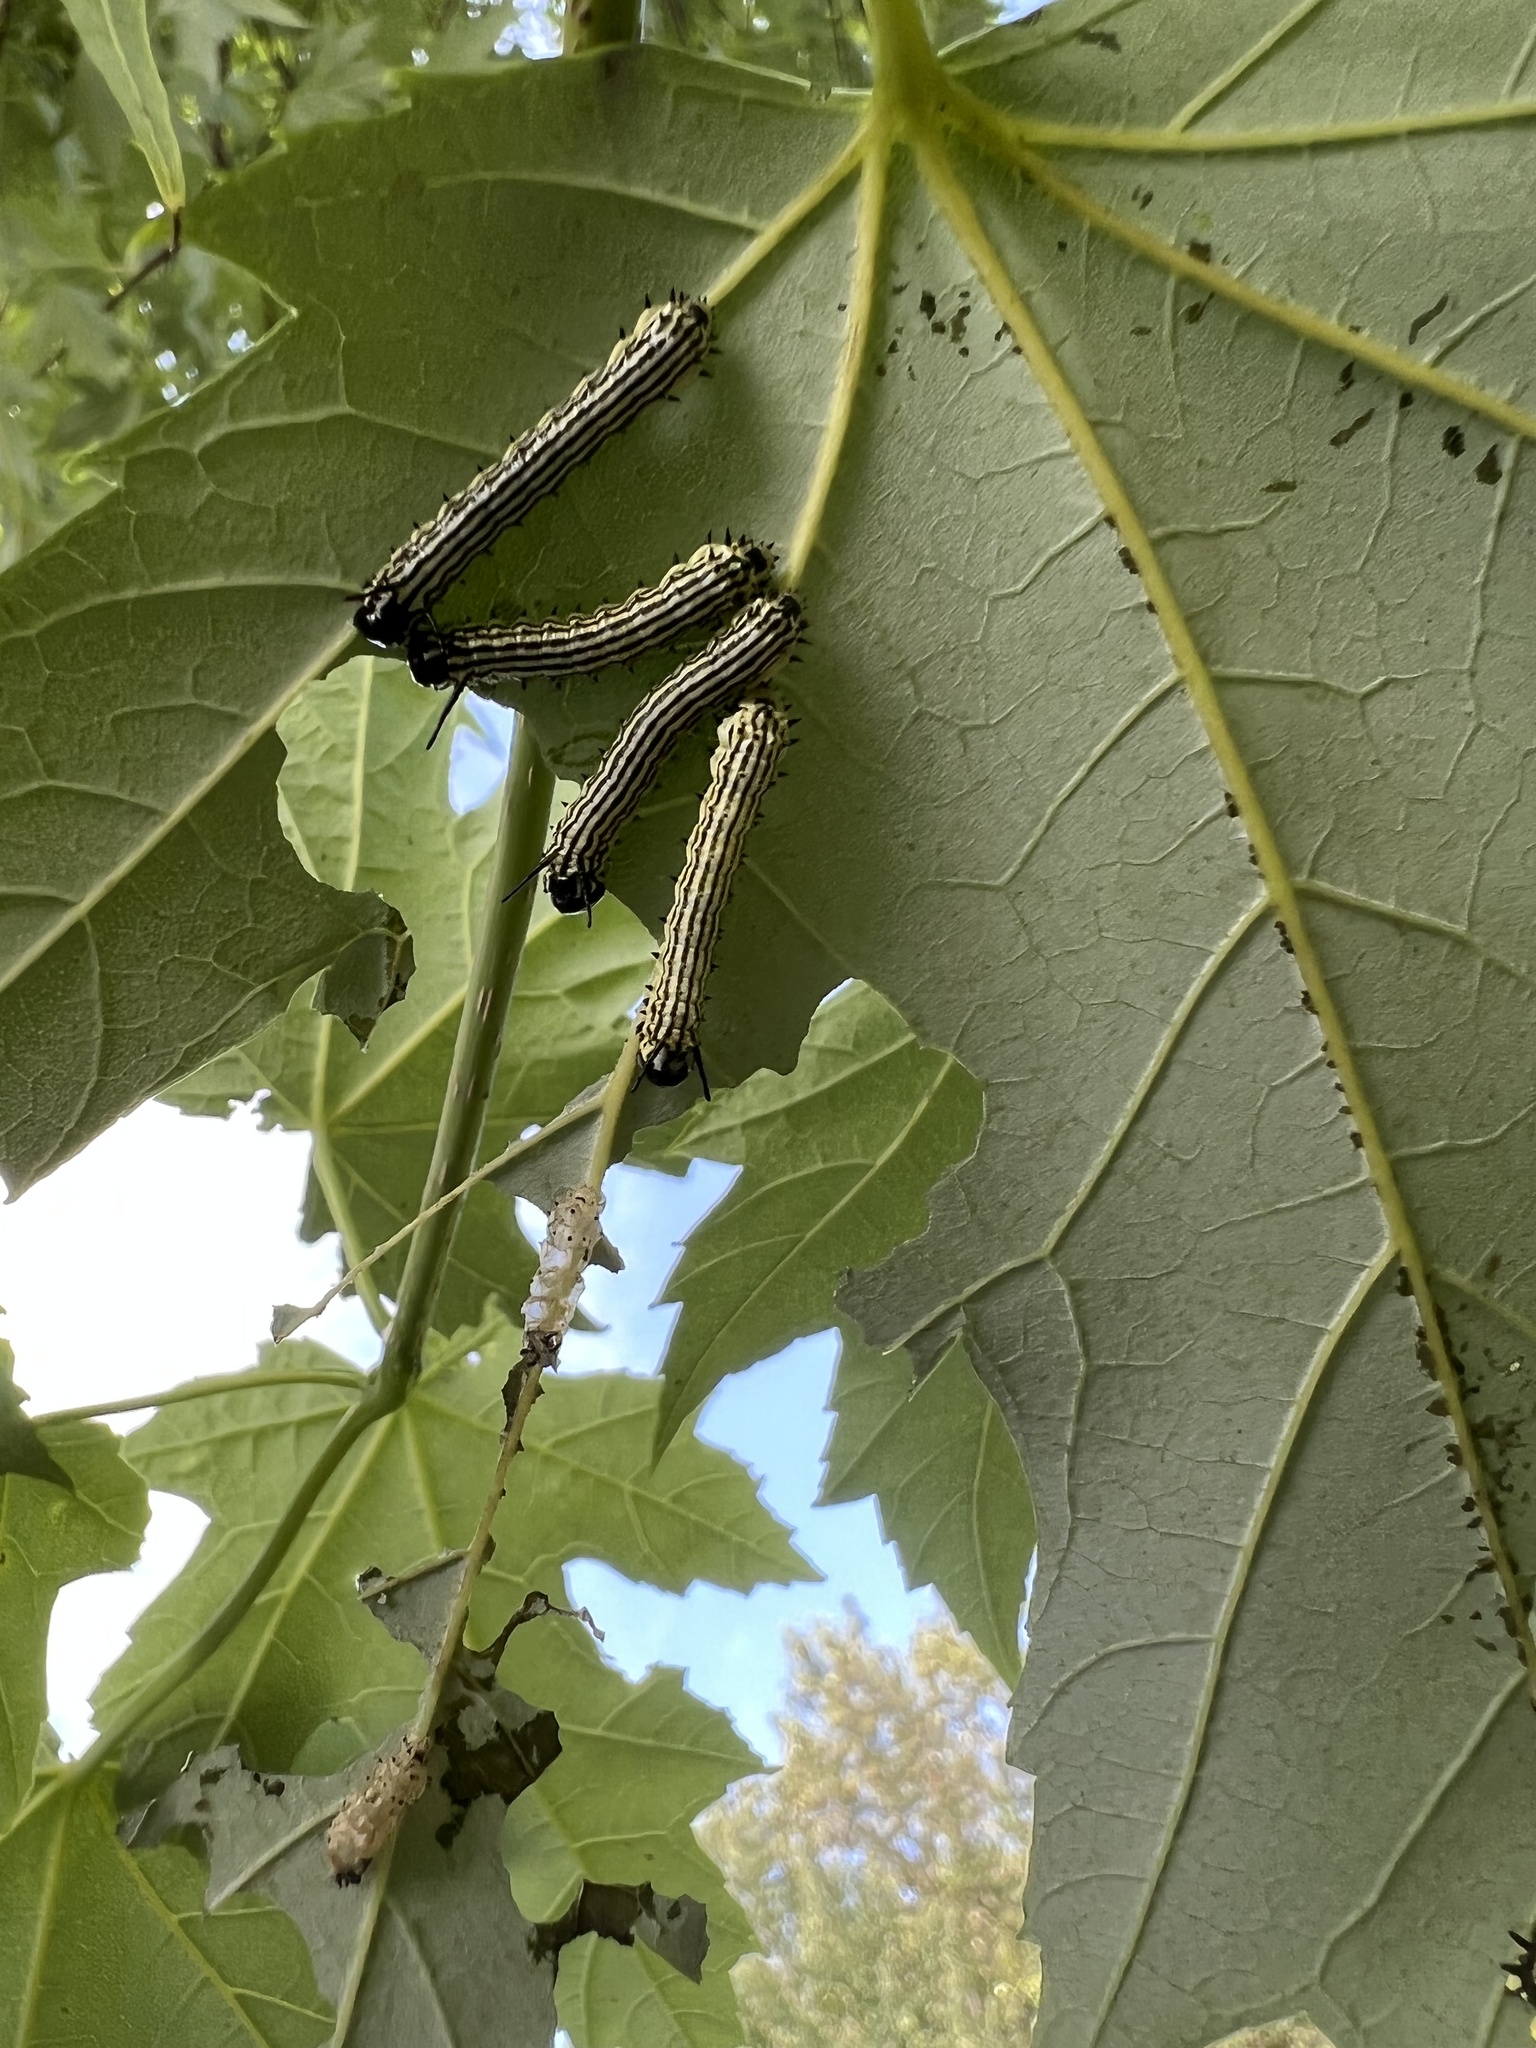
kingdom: Animalia
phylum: Arthropoda
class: Insecta
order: Lepidoptera
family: Saturniidae
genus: Dryocampa
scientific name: Dryocampa rubicunda
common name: Rosy maple moth
